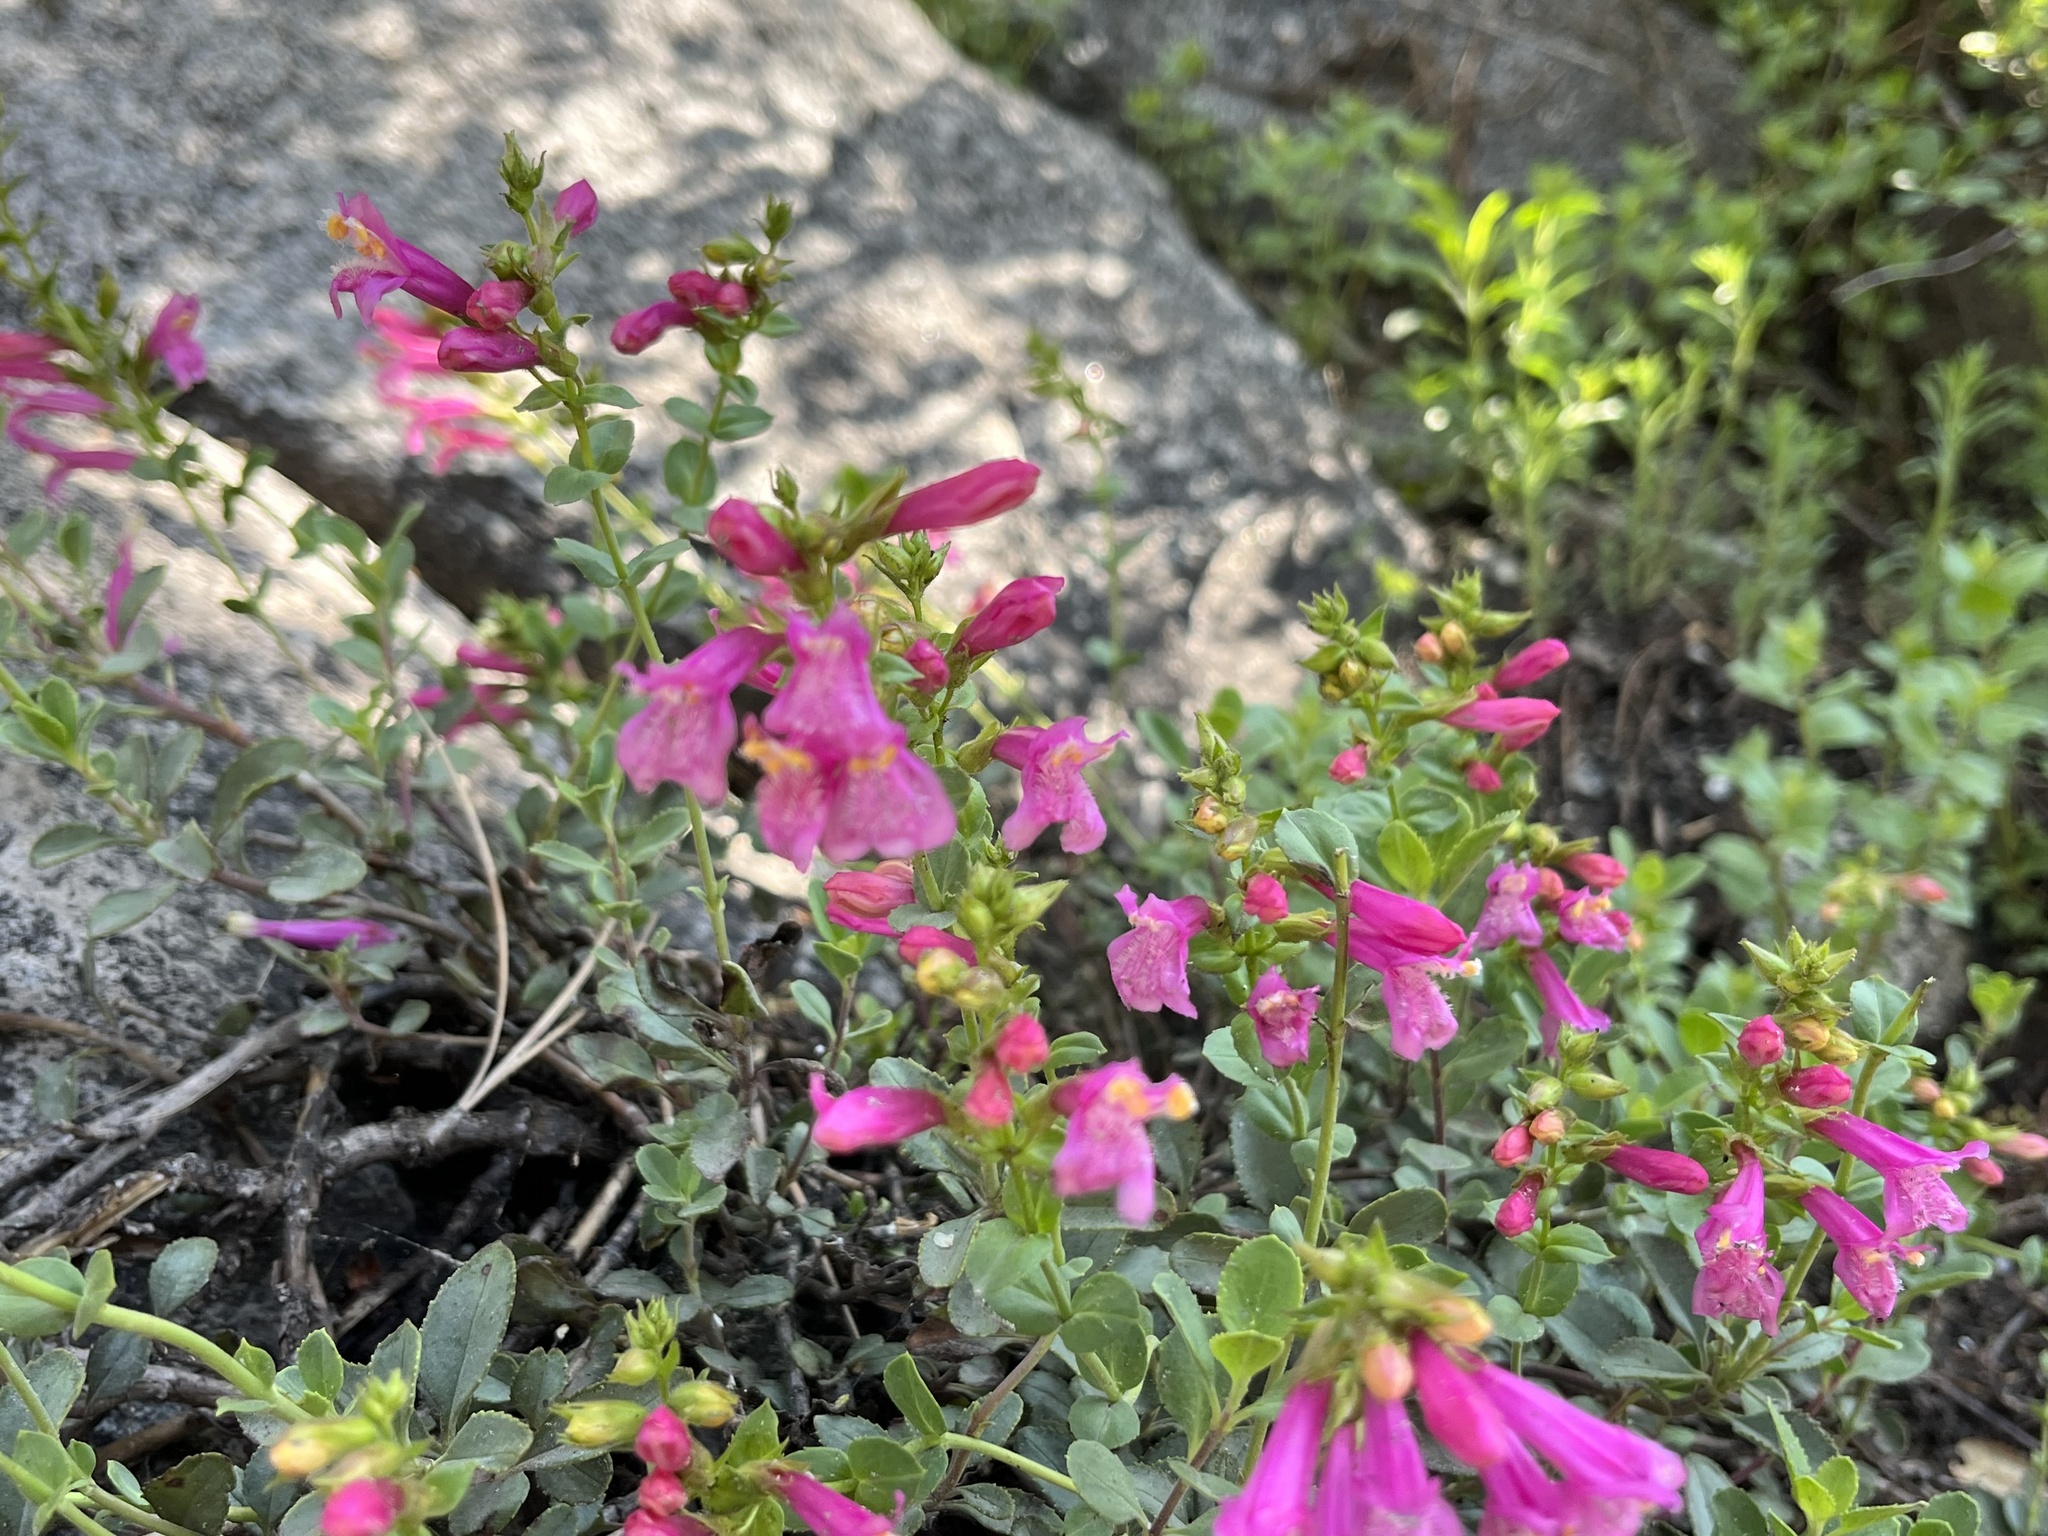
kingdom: Plantae
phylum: Tracheophyta
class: Magnoliopsida
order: Lamiales
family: Plantaginaceae
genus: Penstemon
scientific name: Penstemon newberryi
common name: Mountain-pride
